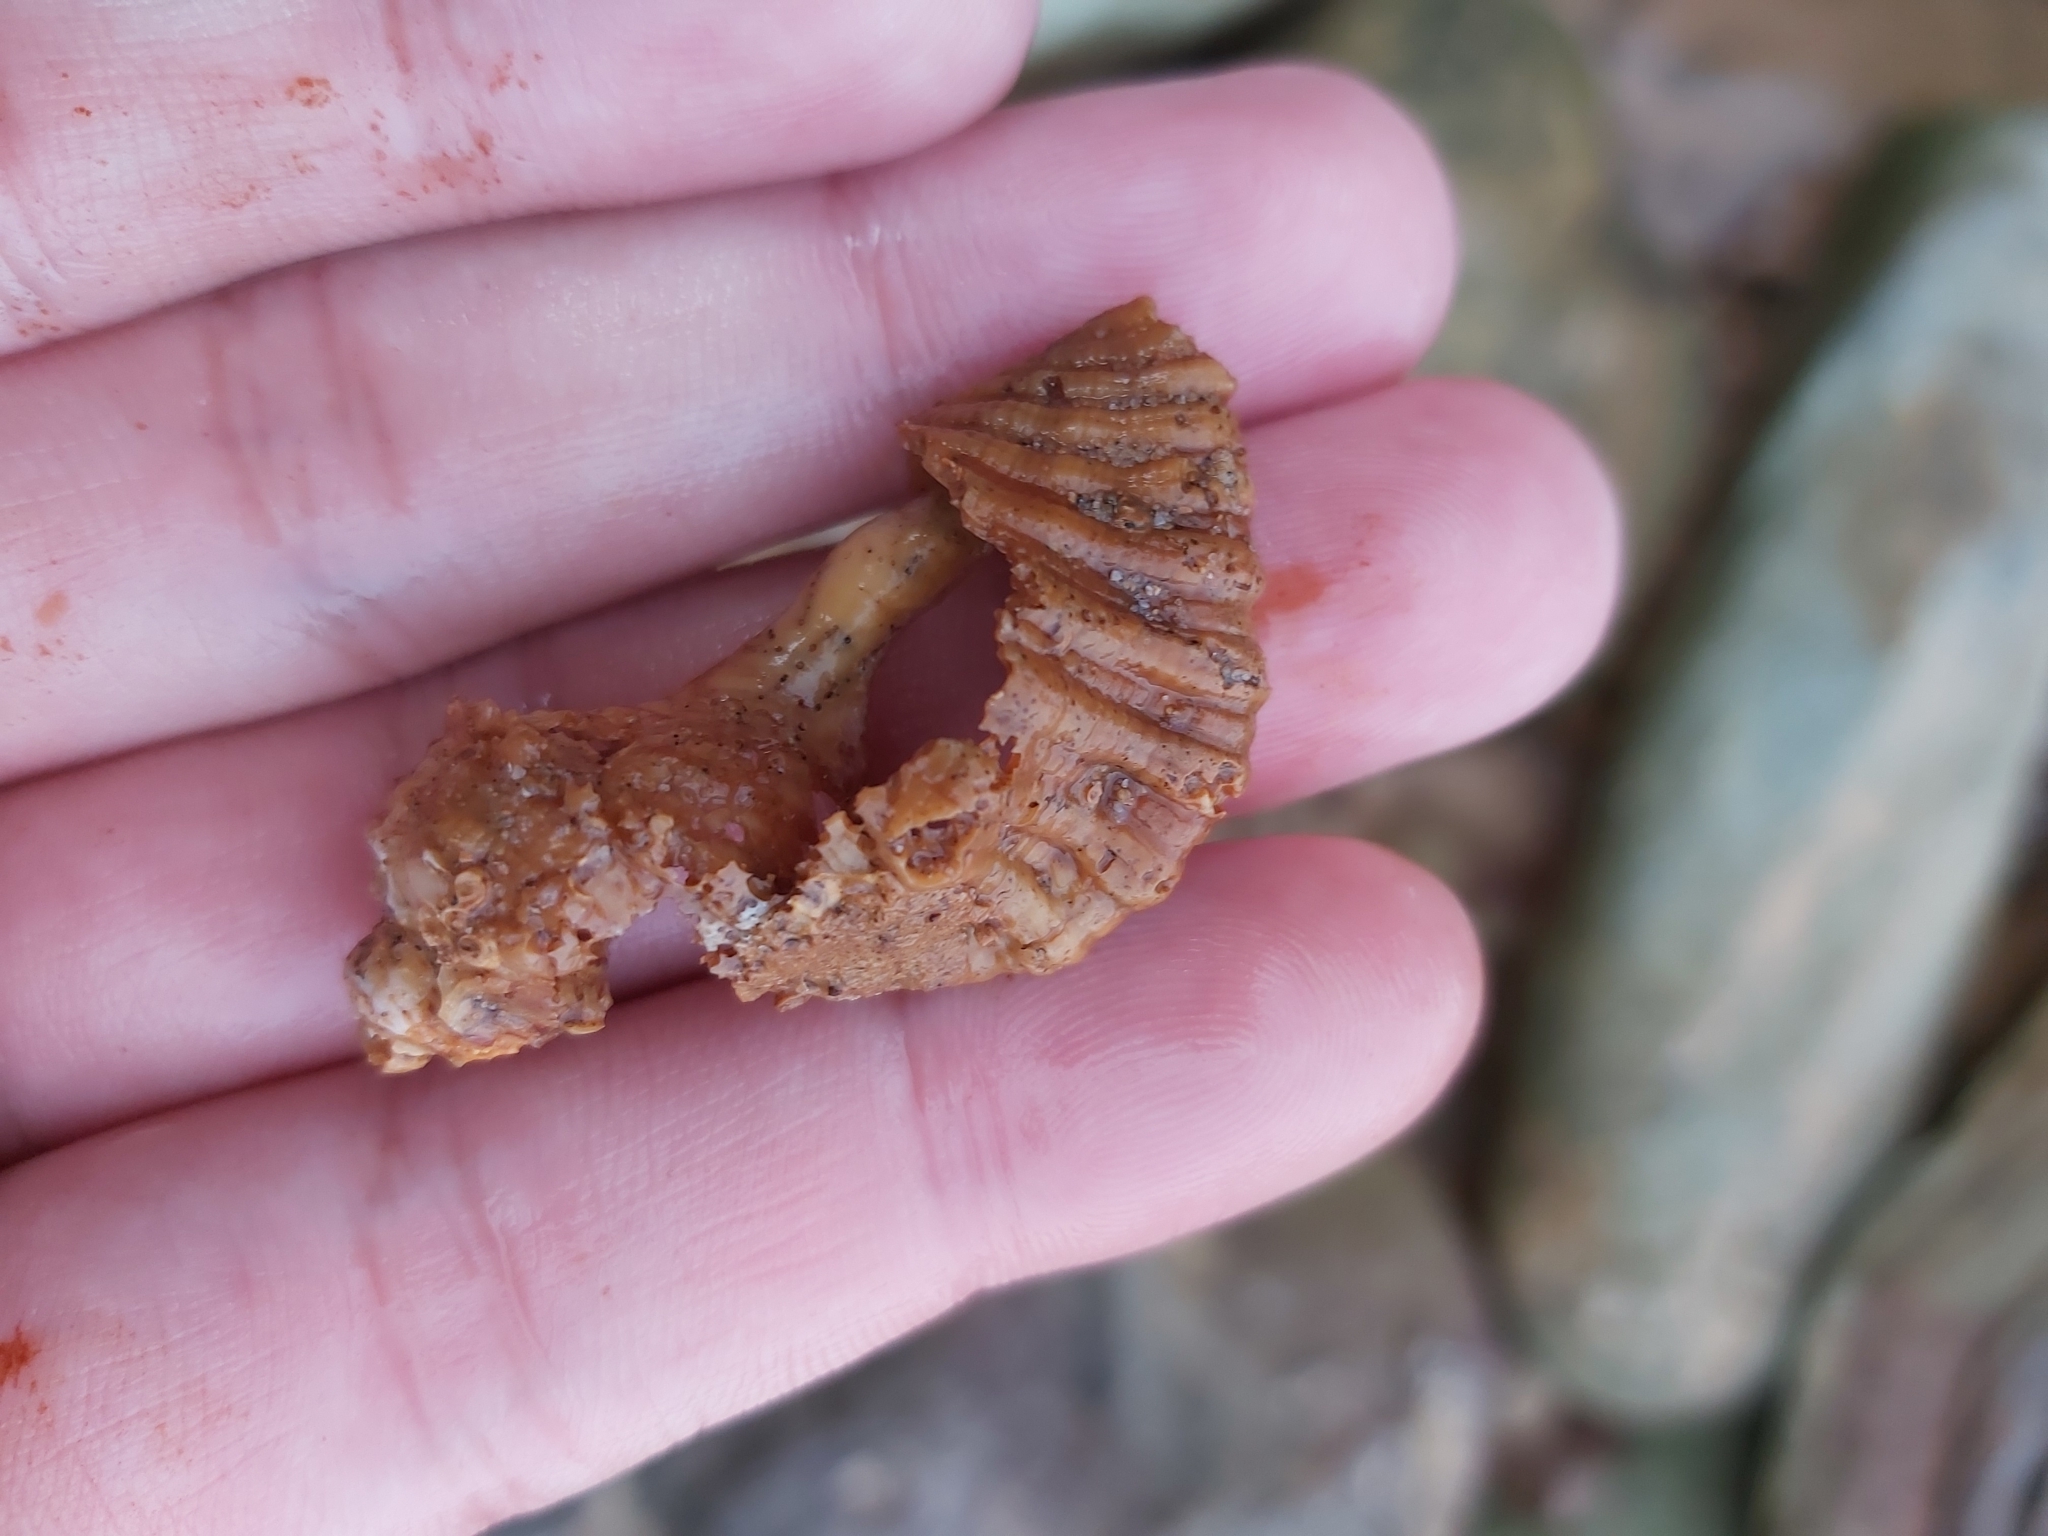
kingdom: Animalia
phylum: Mollusca
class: Gastropoda
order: Littorinimorpha
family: Cymatiidae
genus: Cabestana
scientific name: Cabestana spengleri
